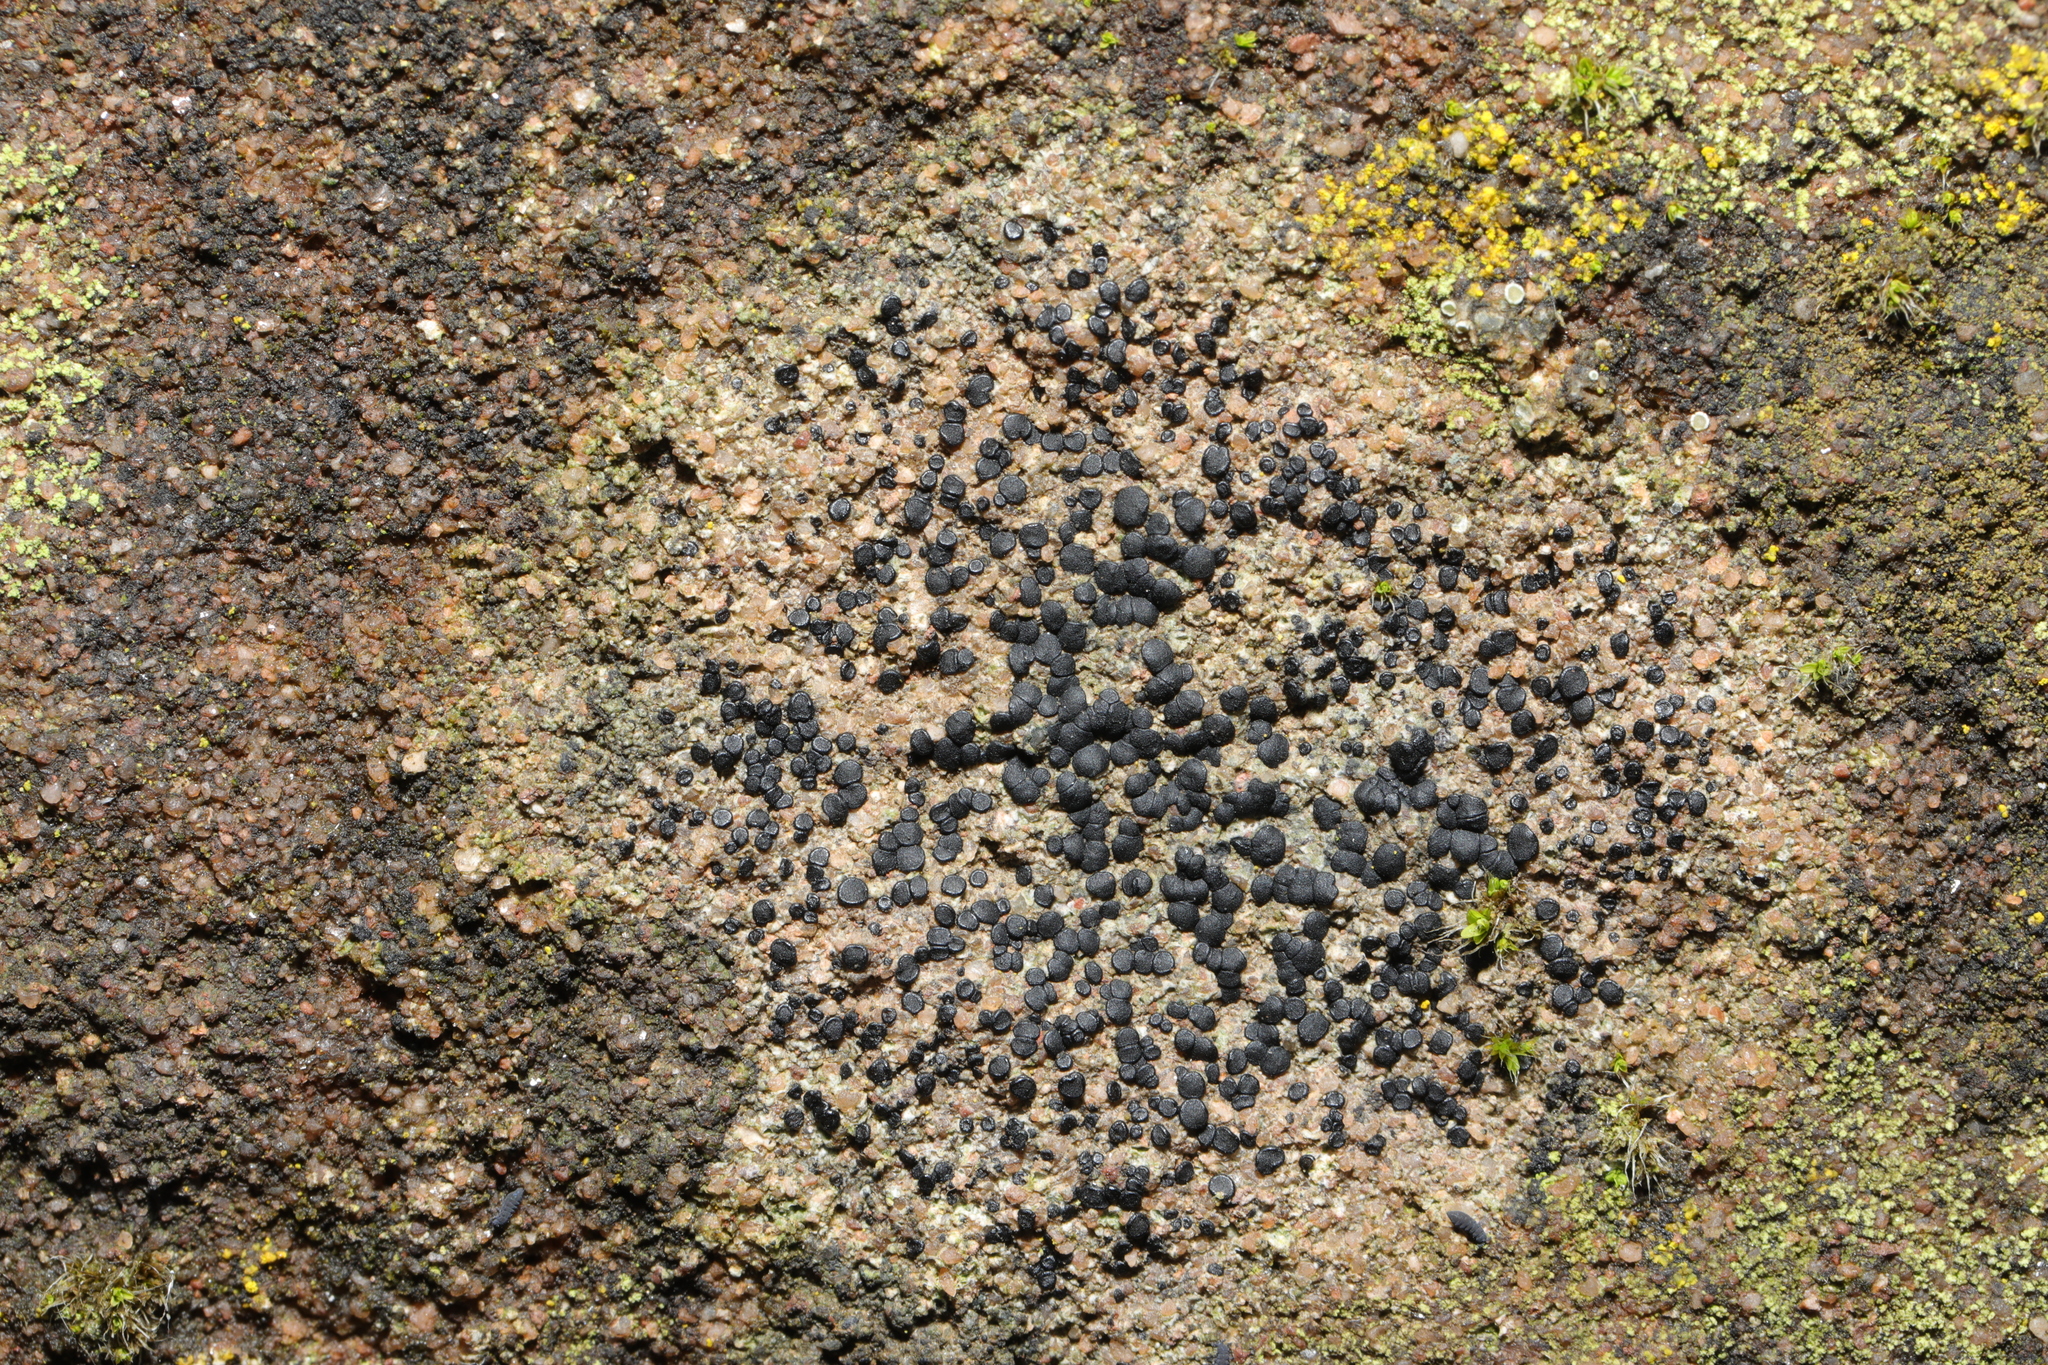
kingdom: Fungi
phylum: Ascomycota
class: Lecanoromycetes
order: Lecanorales
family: Lecanoraceae
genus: Lecidella
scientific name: Lecidella stigmatea
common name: Limestone disc lichen
